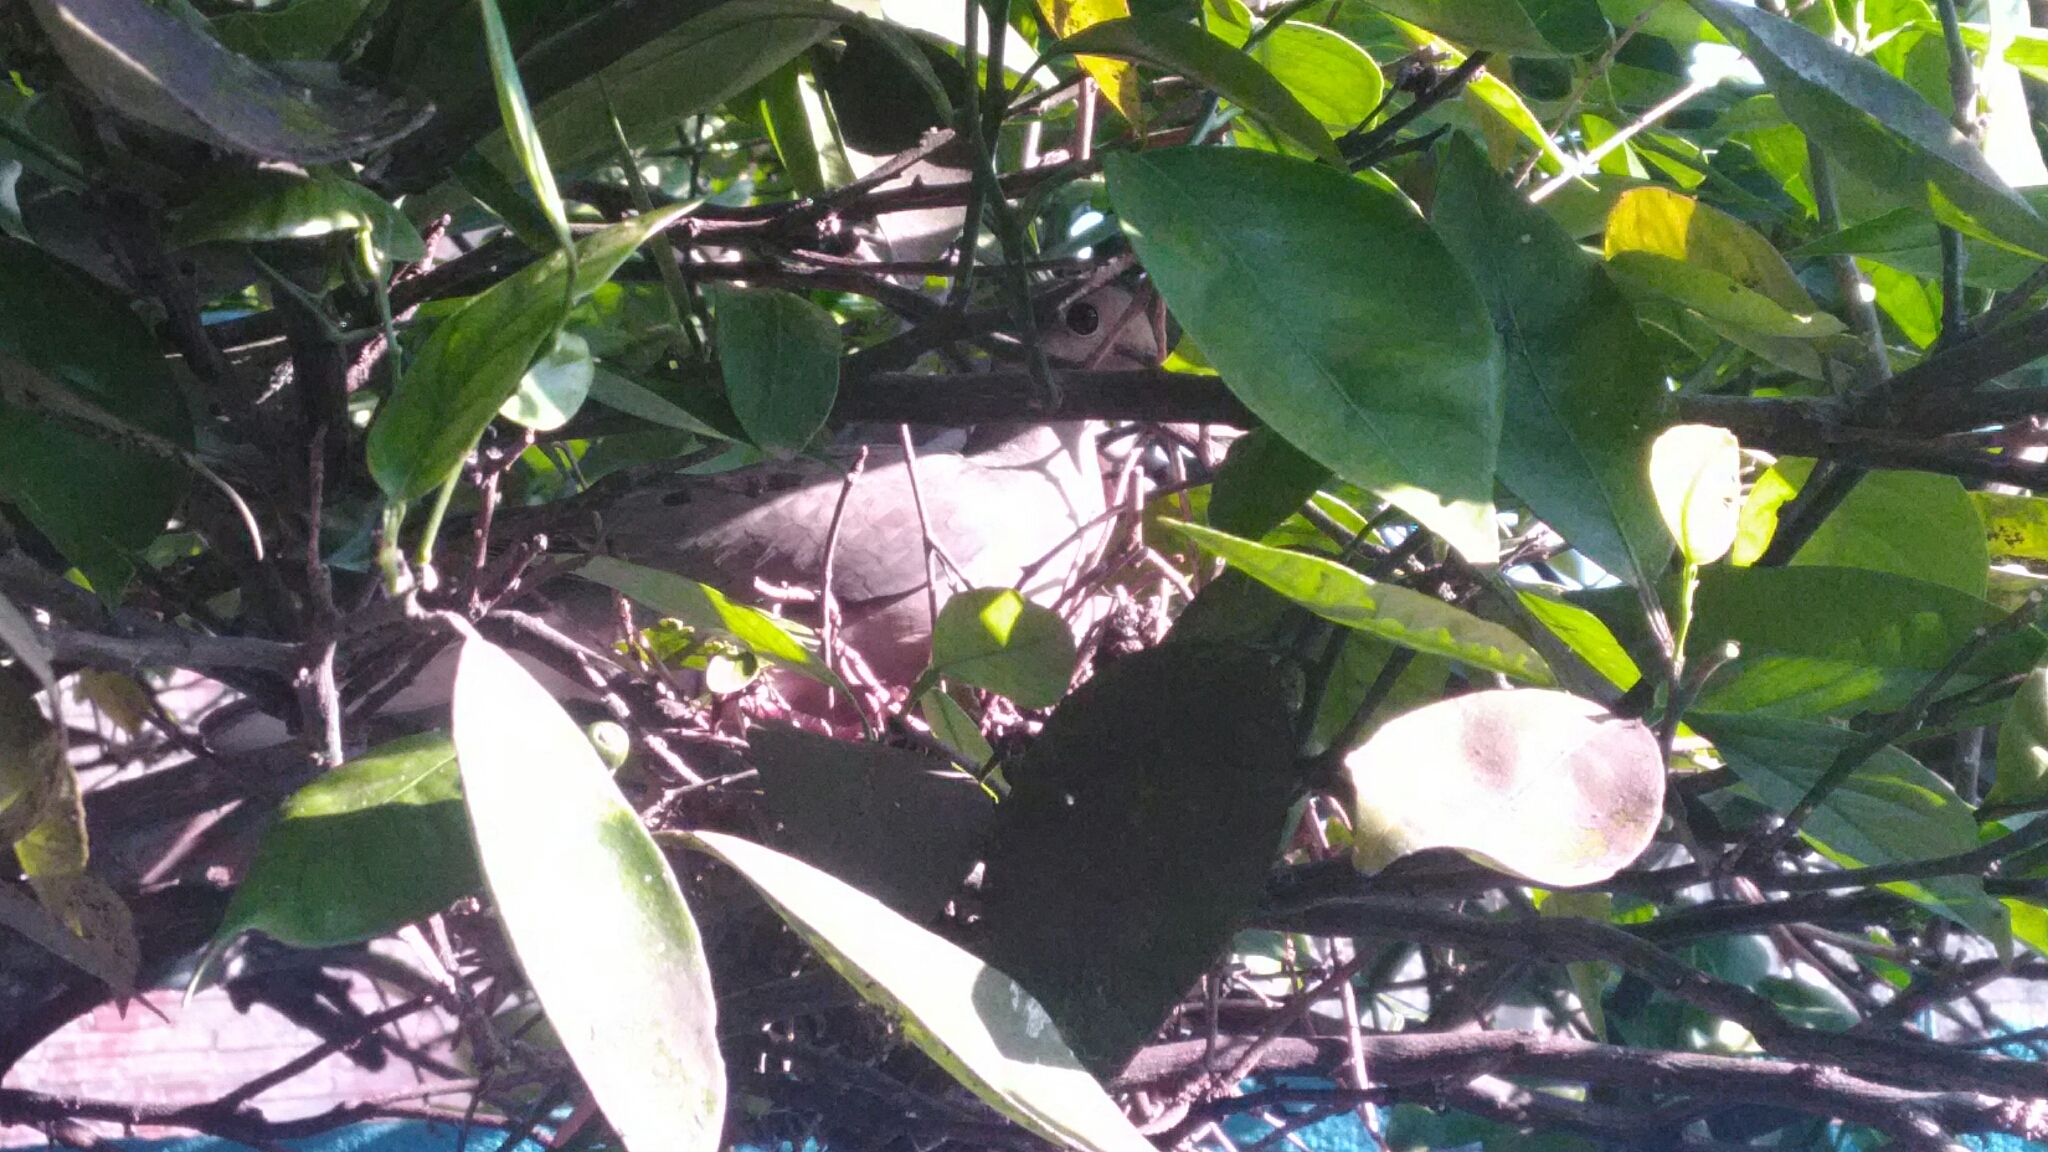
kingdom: Animalia
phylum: Chordata
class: Aves
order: Columbiformes
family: Columbidae
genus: Zenaida
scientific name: Zenaida auriculata
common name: Eared dove
